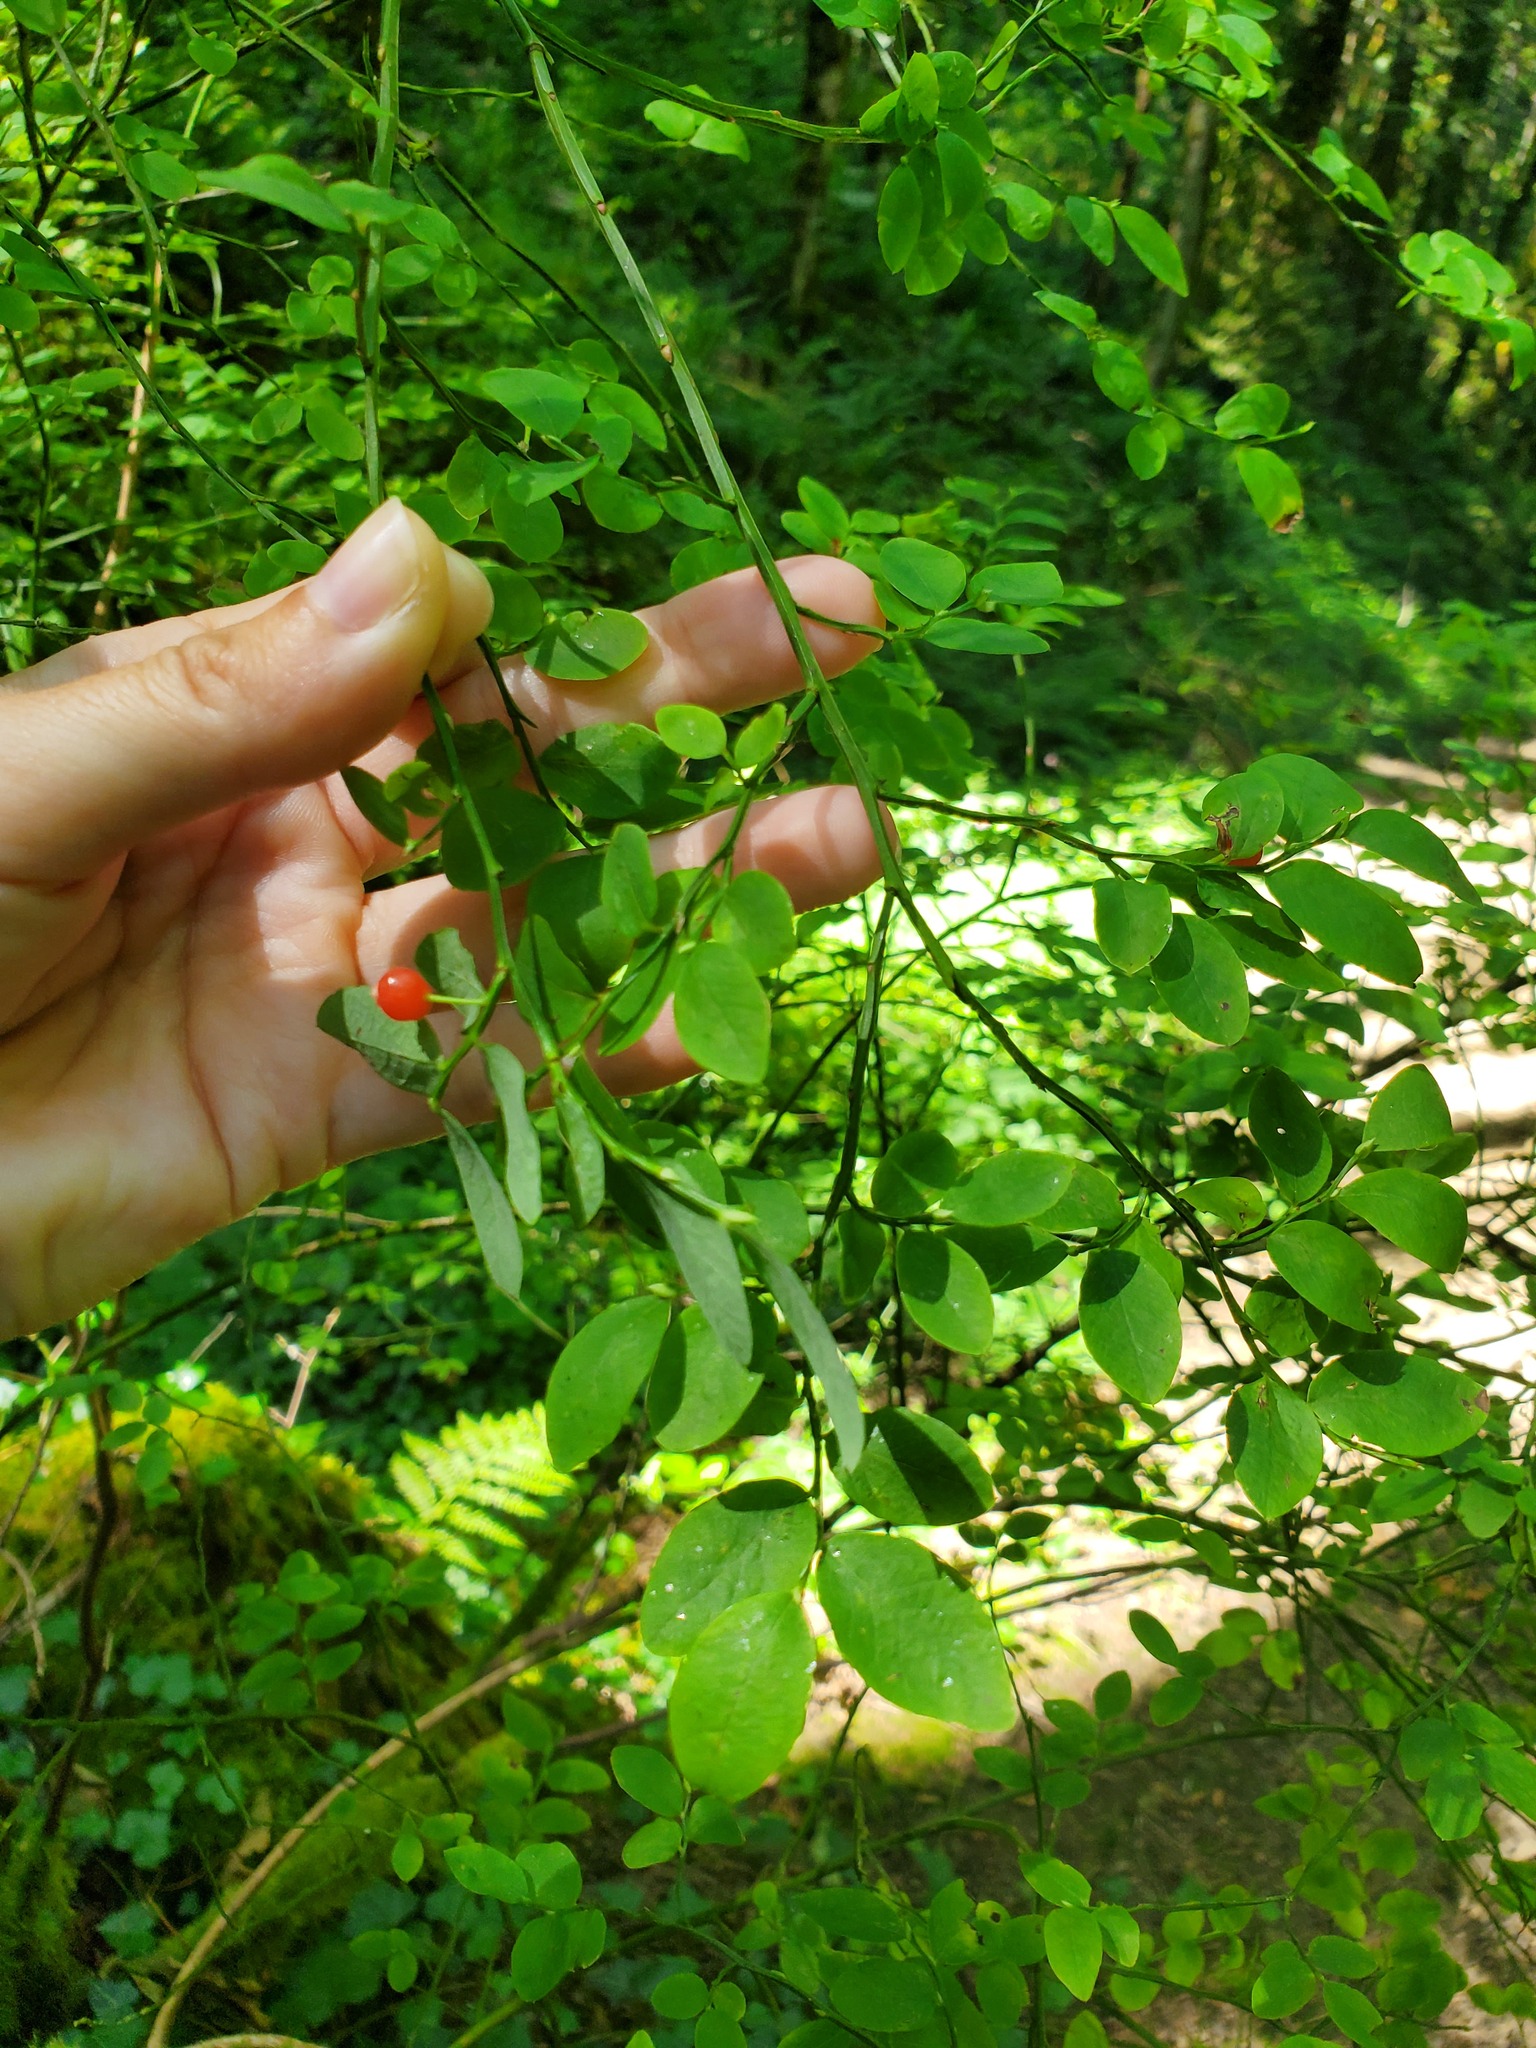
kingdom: Plantae
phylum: Tracheophyta
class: Magnoliopsida
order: Ericales
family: Ericaceae
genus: Vaccinium
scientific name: Vaccinium parvifolium
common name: Red-huckleberry
